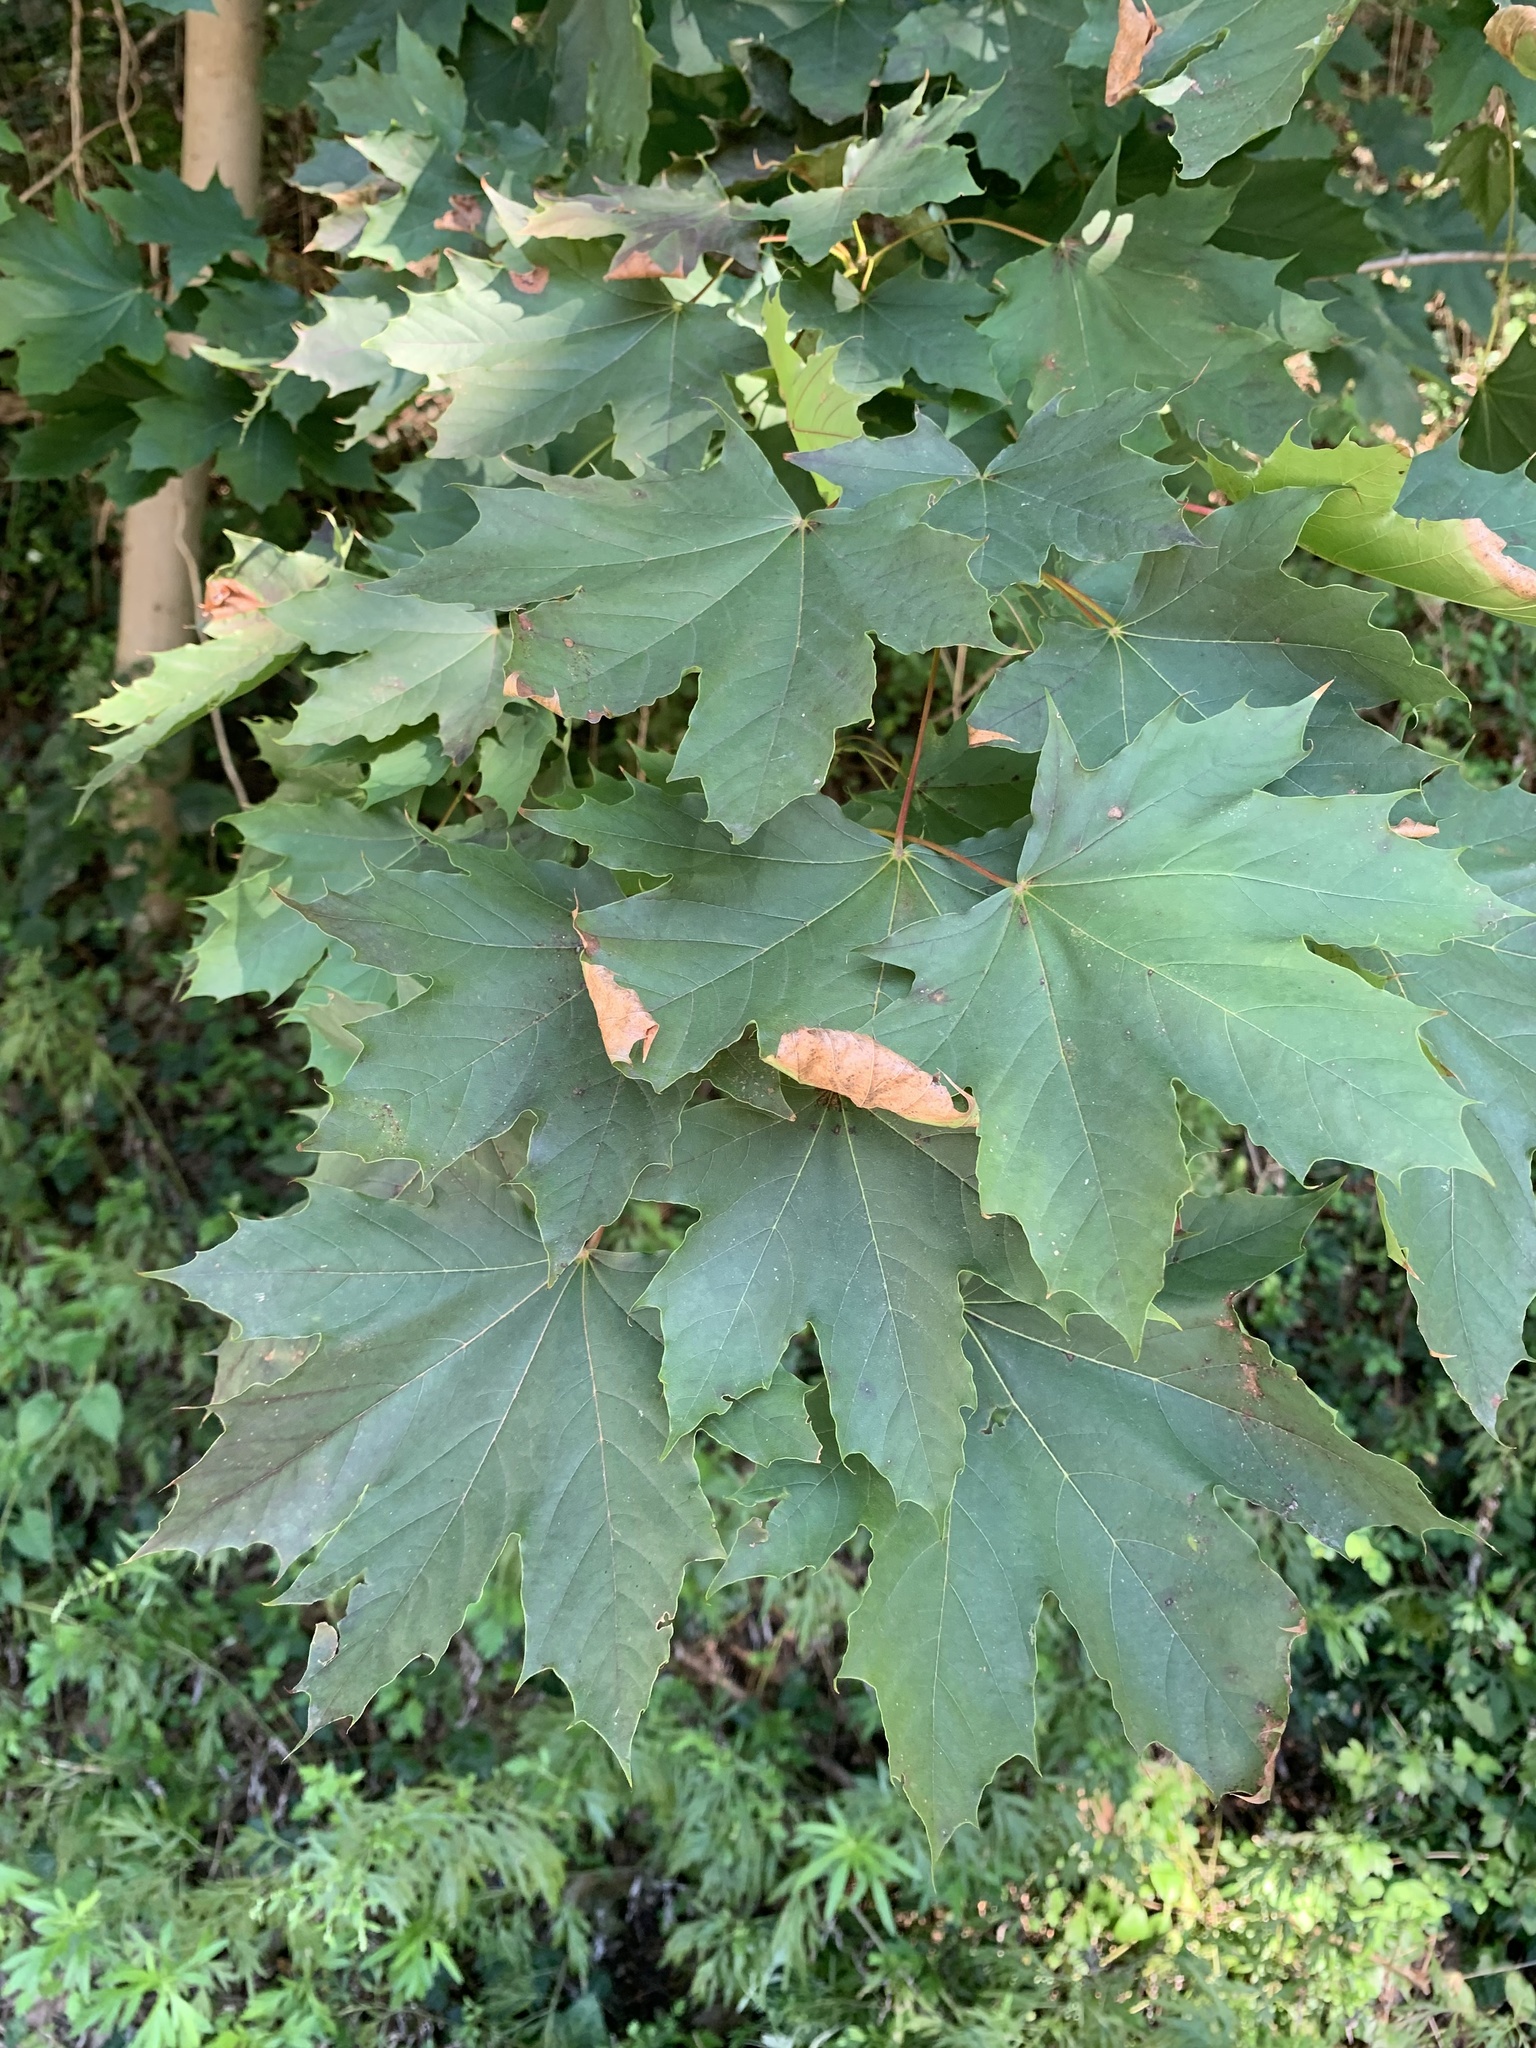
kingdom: Plantae
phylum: Tracheophyta
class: Magnoliopsida
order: Sapindales
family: Sapindaceae
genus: Acer
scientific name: Acer platanoides
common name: Norway maple
